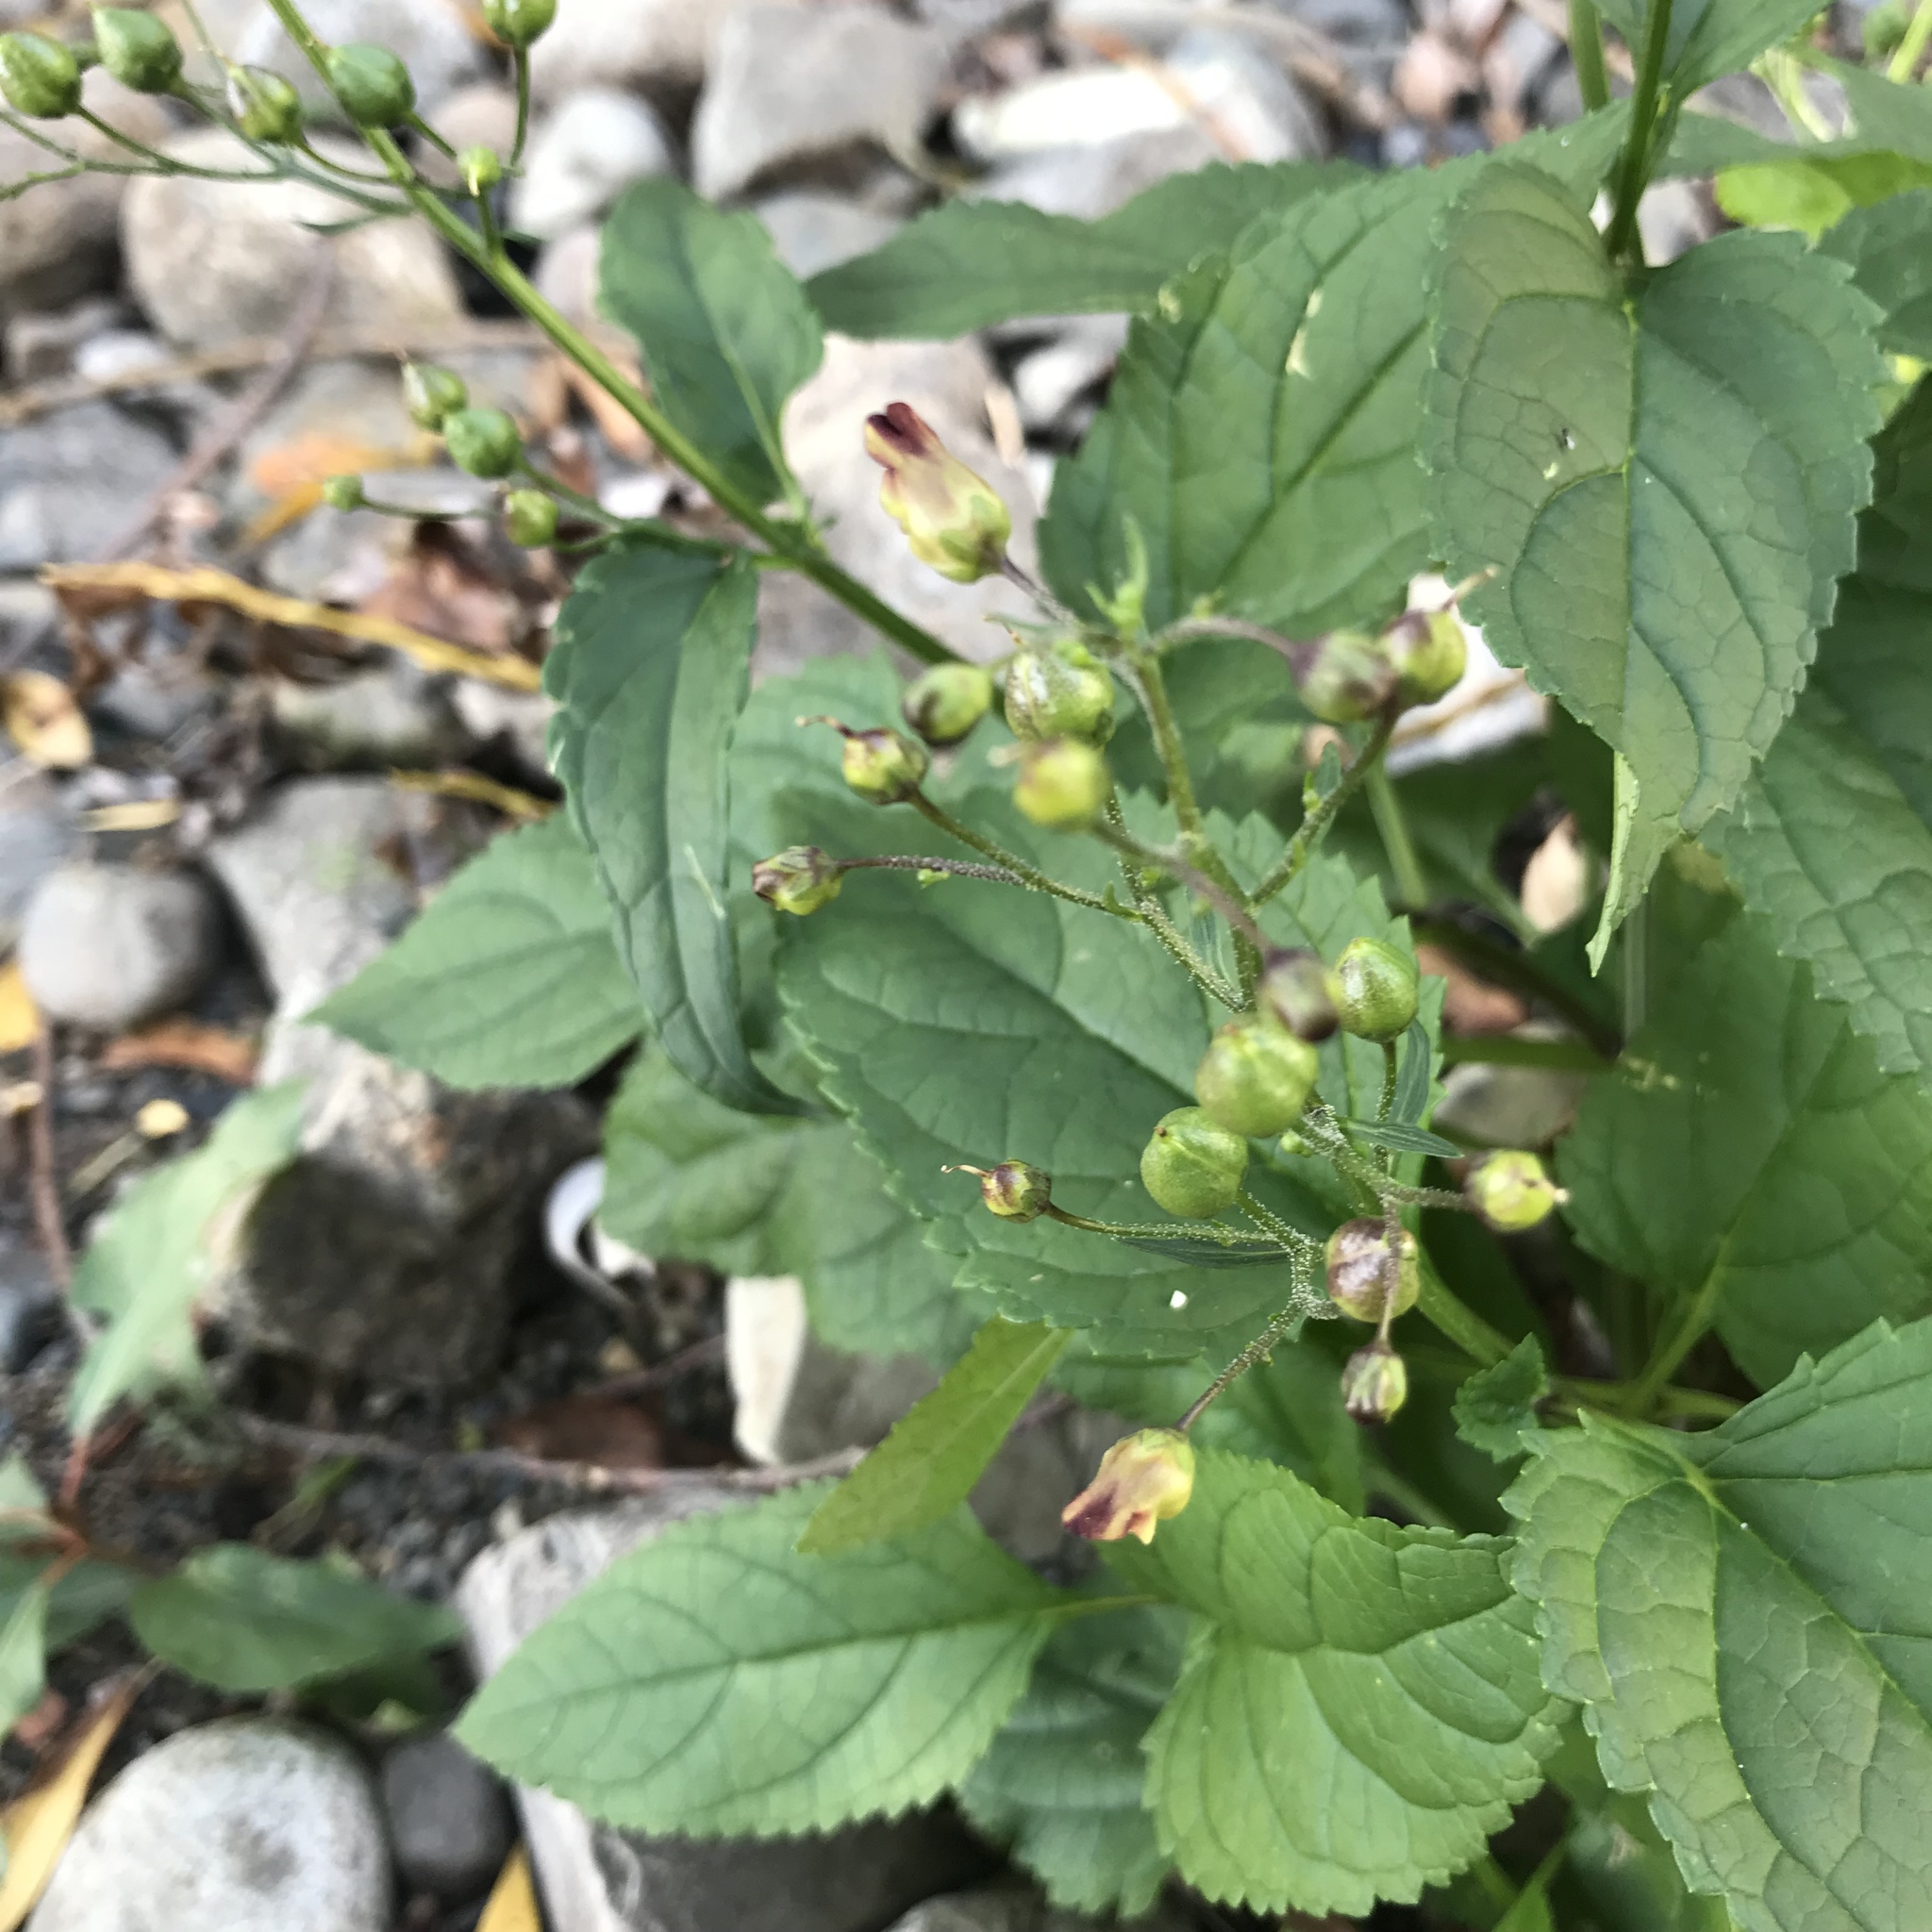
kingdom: Plantae
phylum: Tracheophyta
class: Magnoliopsida
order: Lamiales
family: Scrophulariaceae
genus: Scrophularia
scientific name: Scrophularia nodosa
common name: Common figwort
